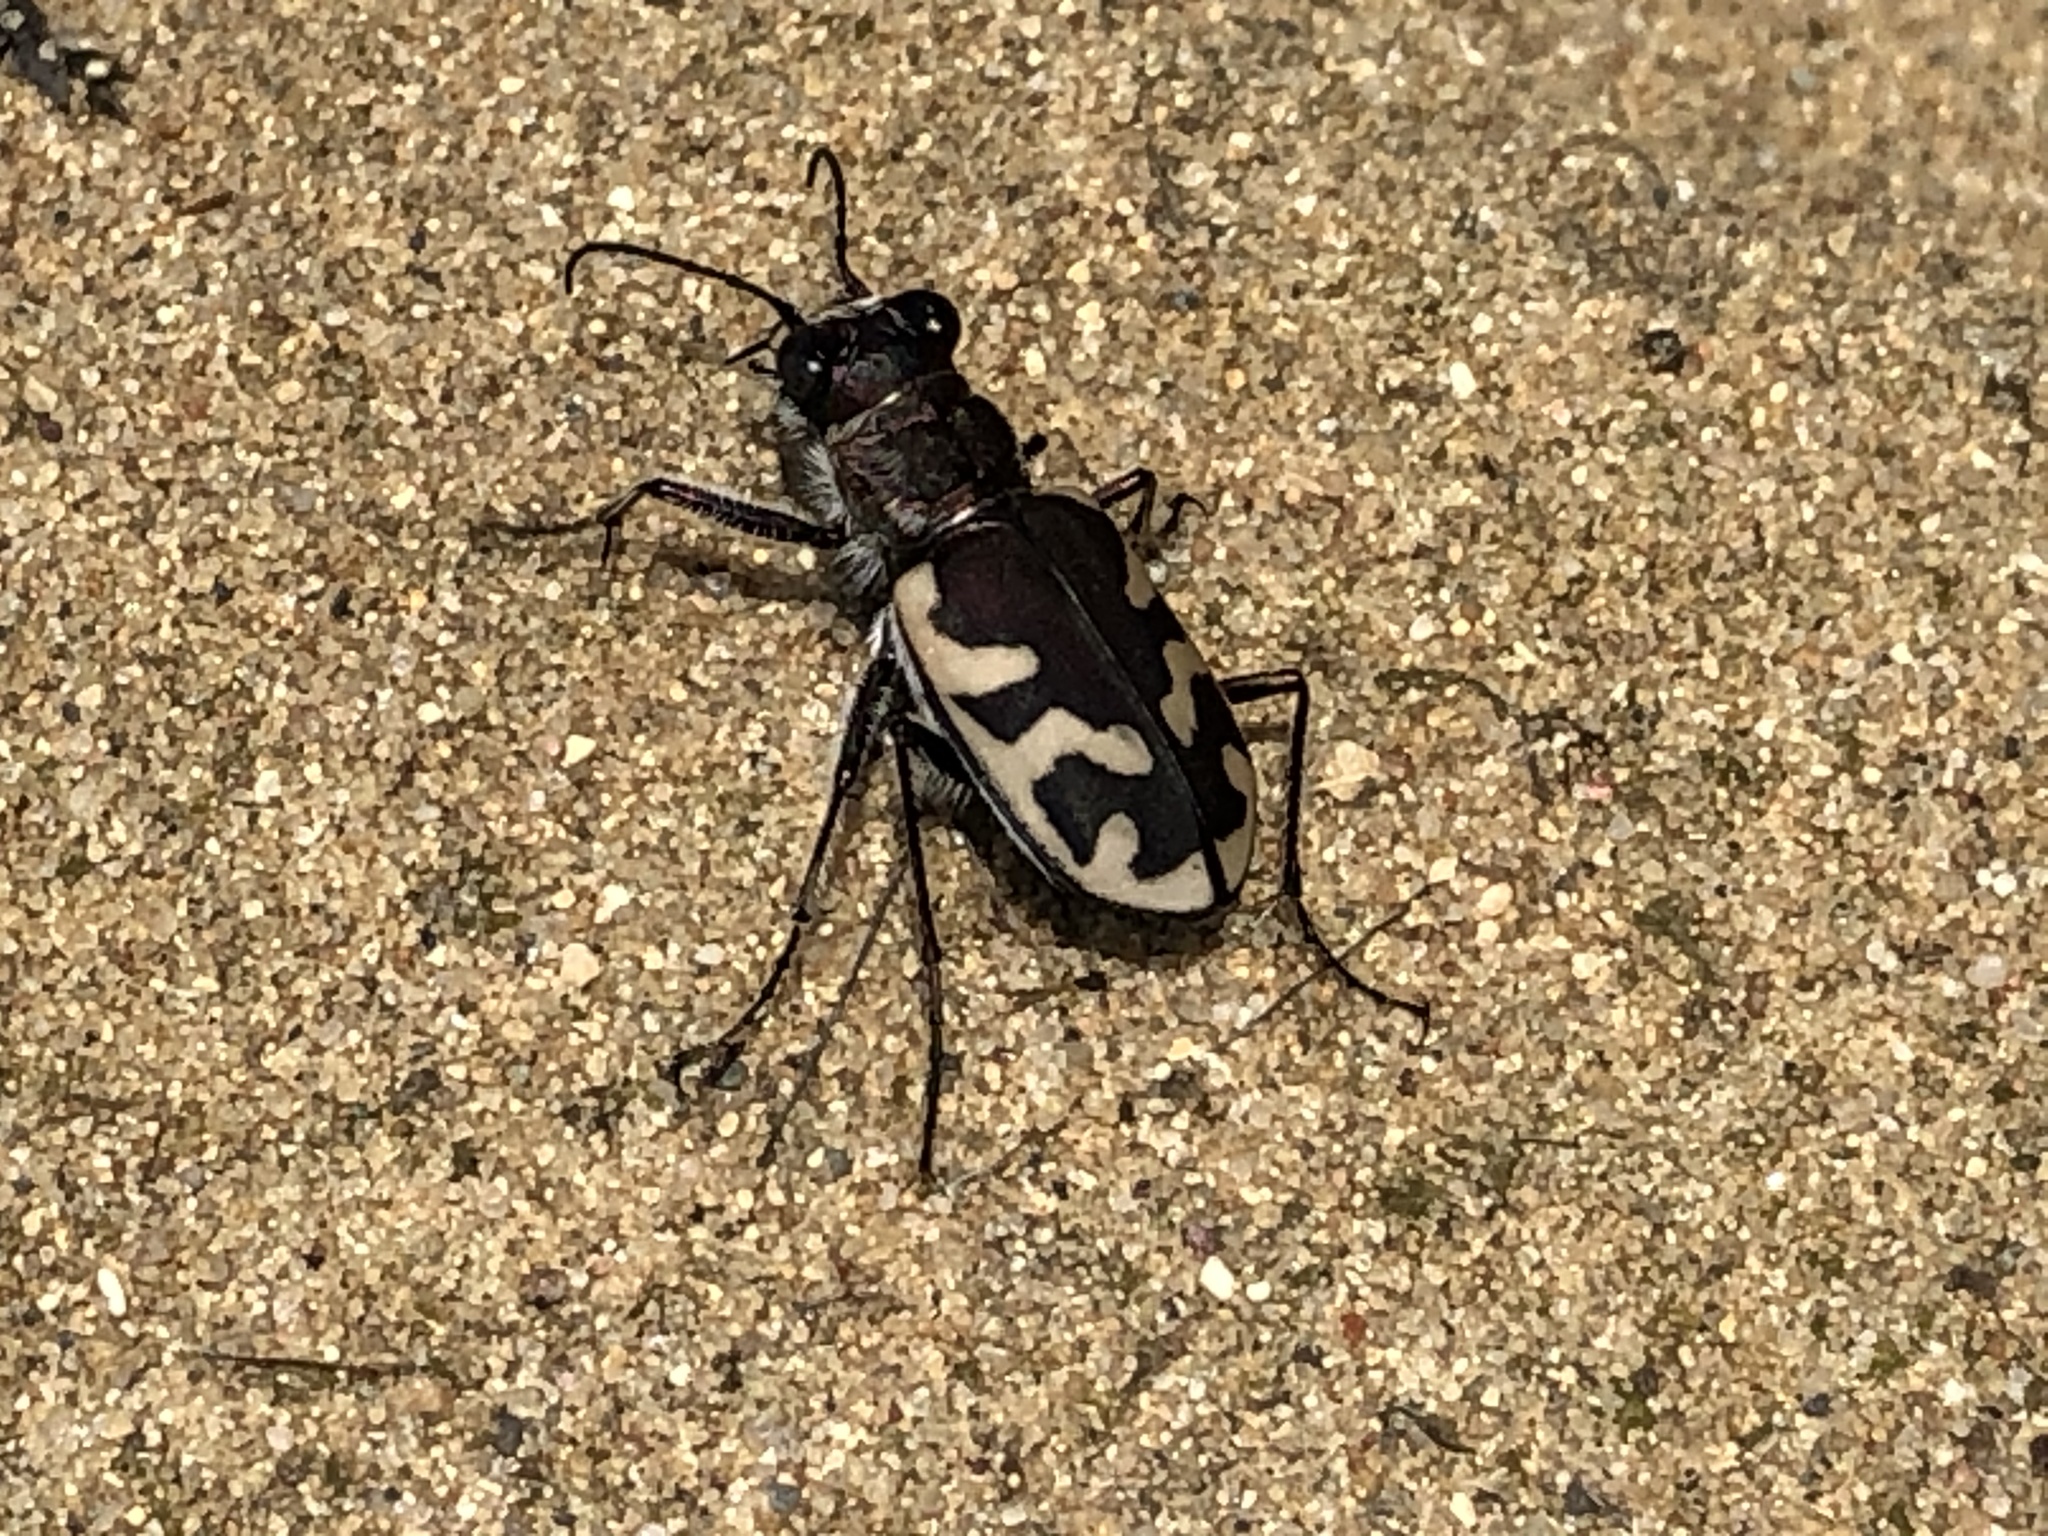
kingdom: Animalia
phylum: Arthropoda
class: Insecta
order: Coleoptera
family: Carabidae
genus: Cicindela
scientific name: Cicindela formosa
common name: Big sand tiger beetle
